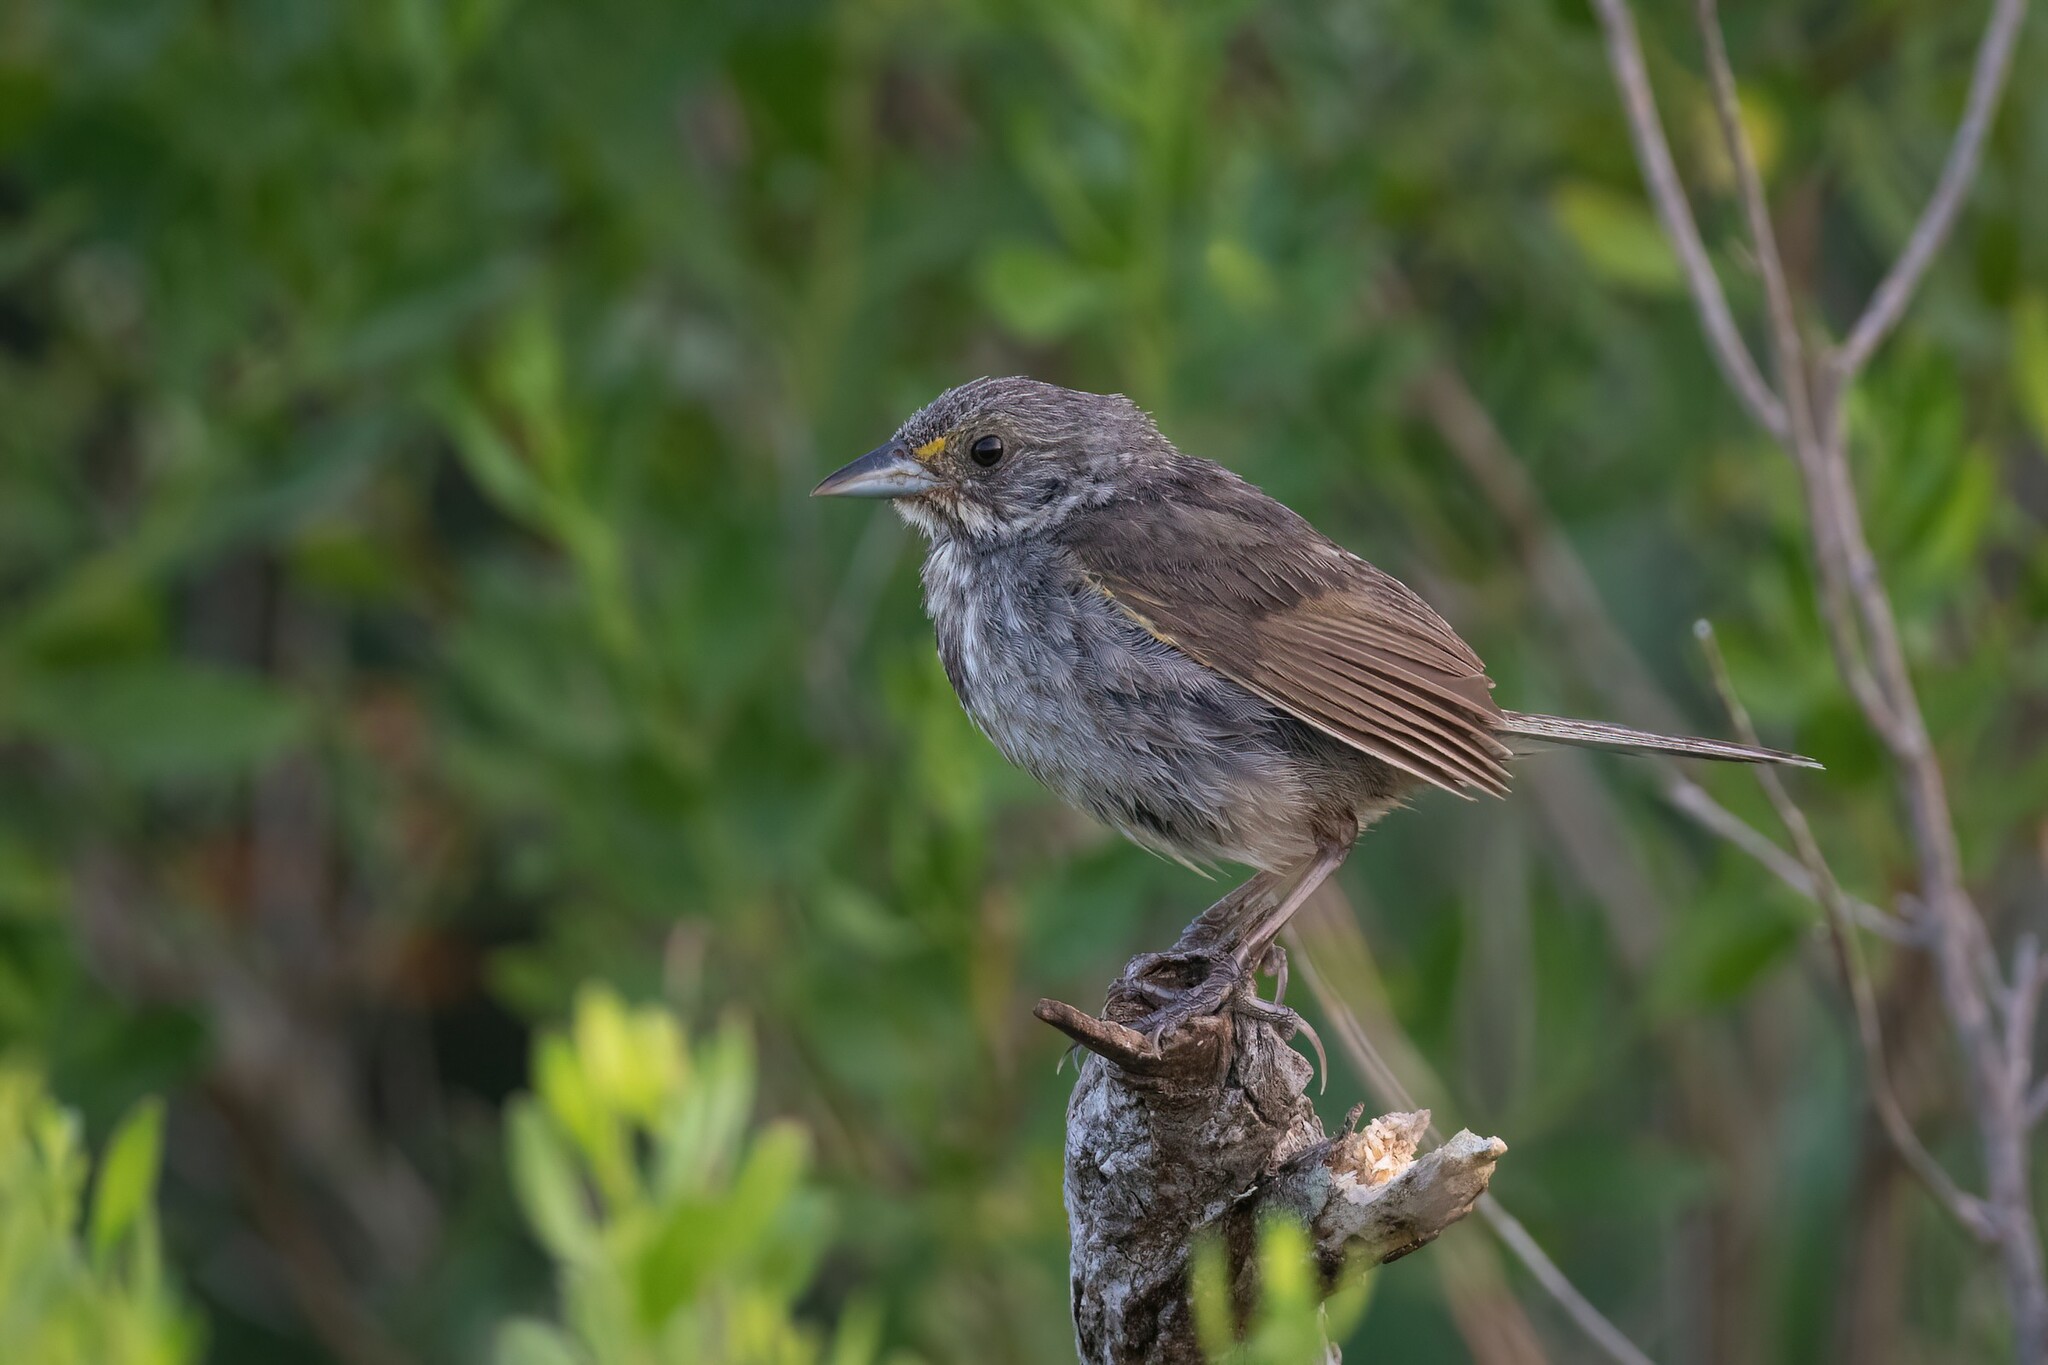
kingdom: Animalia
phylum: Chordata
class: Aves
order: Passeriformes
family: Passerellidae
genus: Ammospiza
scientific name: Ammospiza maritima
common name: Seaside sparrow
